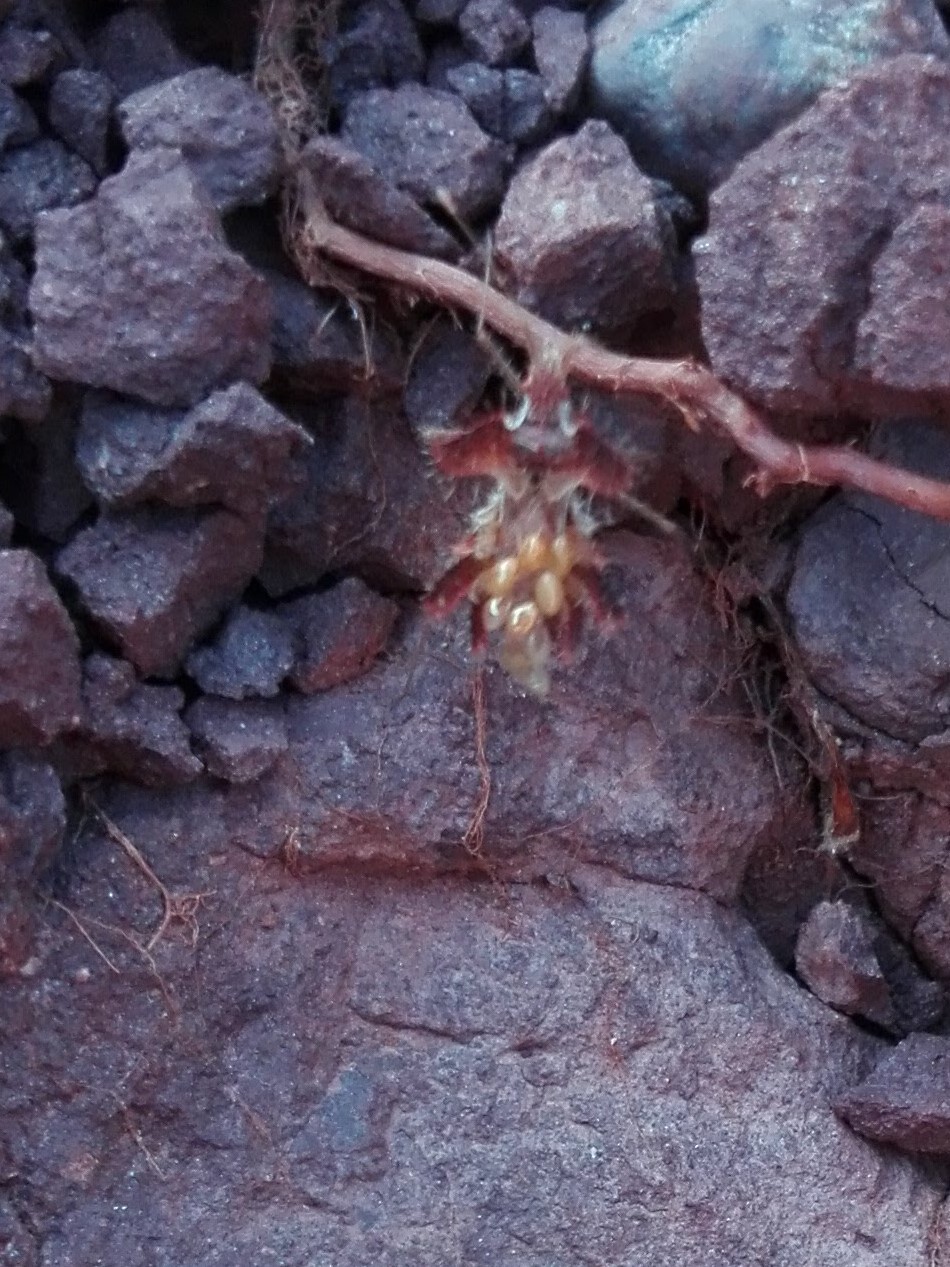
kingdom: Animalia
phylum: Arthropoda
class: Insecta
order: Hemiptera
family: Coreidae
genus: Phyllomorpha
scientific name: Phyllomorpha laciniata
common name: Golden egg bug
